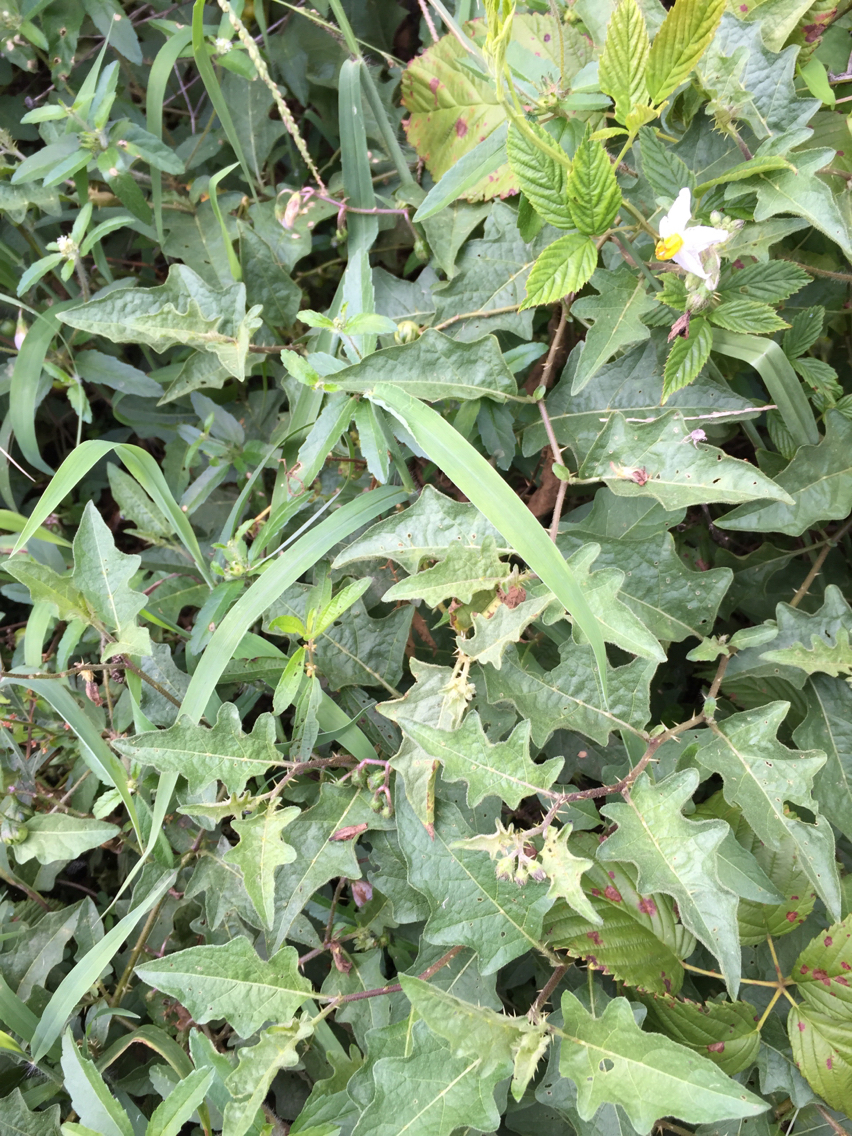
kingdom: Plantae
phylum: Tracheophyta
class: Magnoliopsida
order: Solanales
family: Solanaceae
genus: Solanum
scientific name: Solanum carolinense
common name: Horse-nettle
